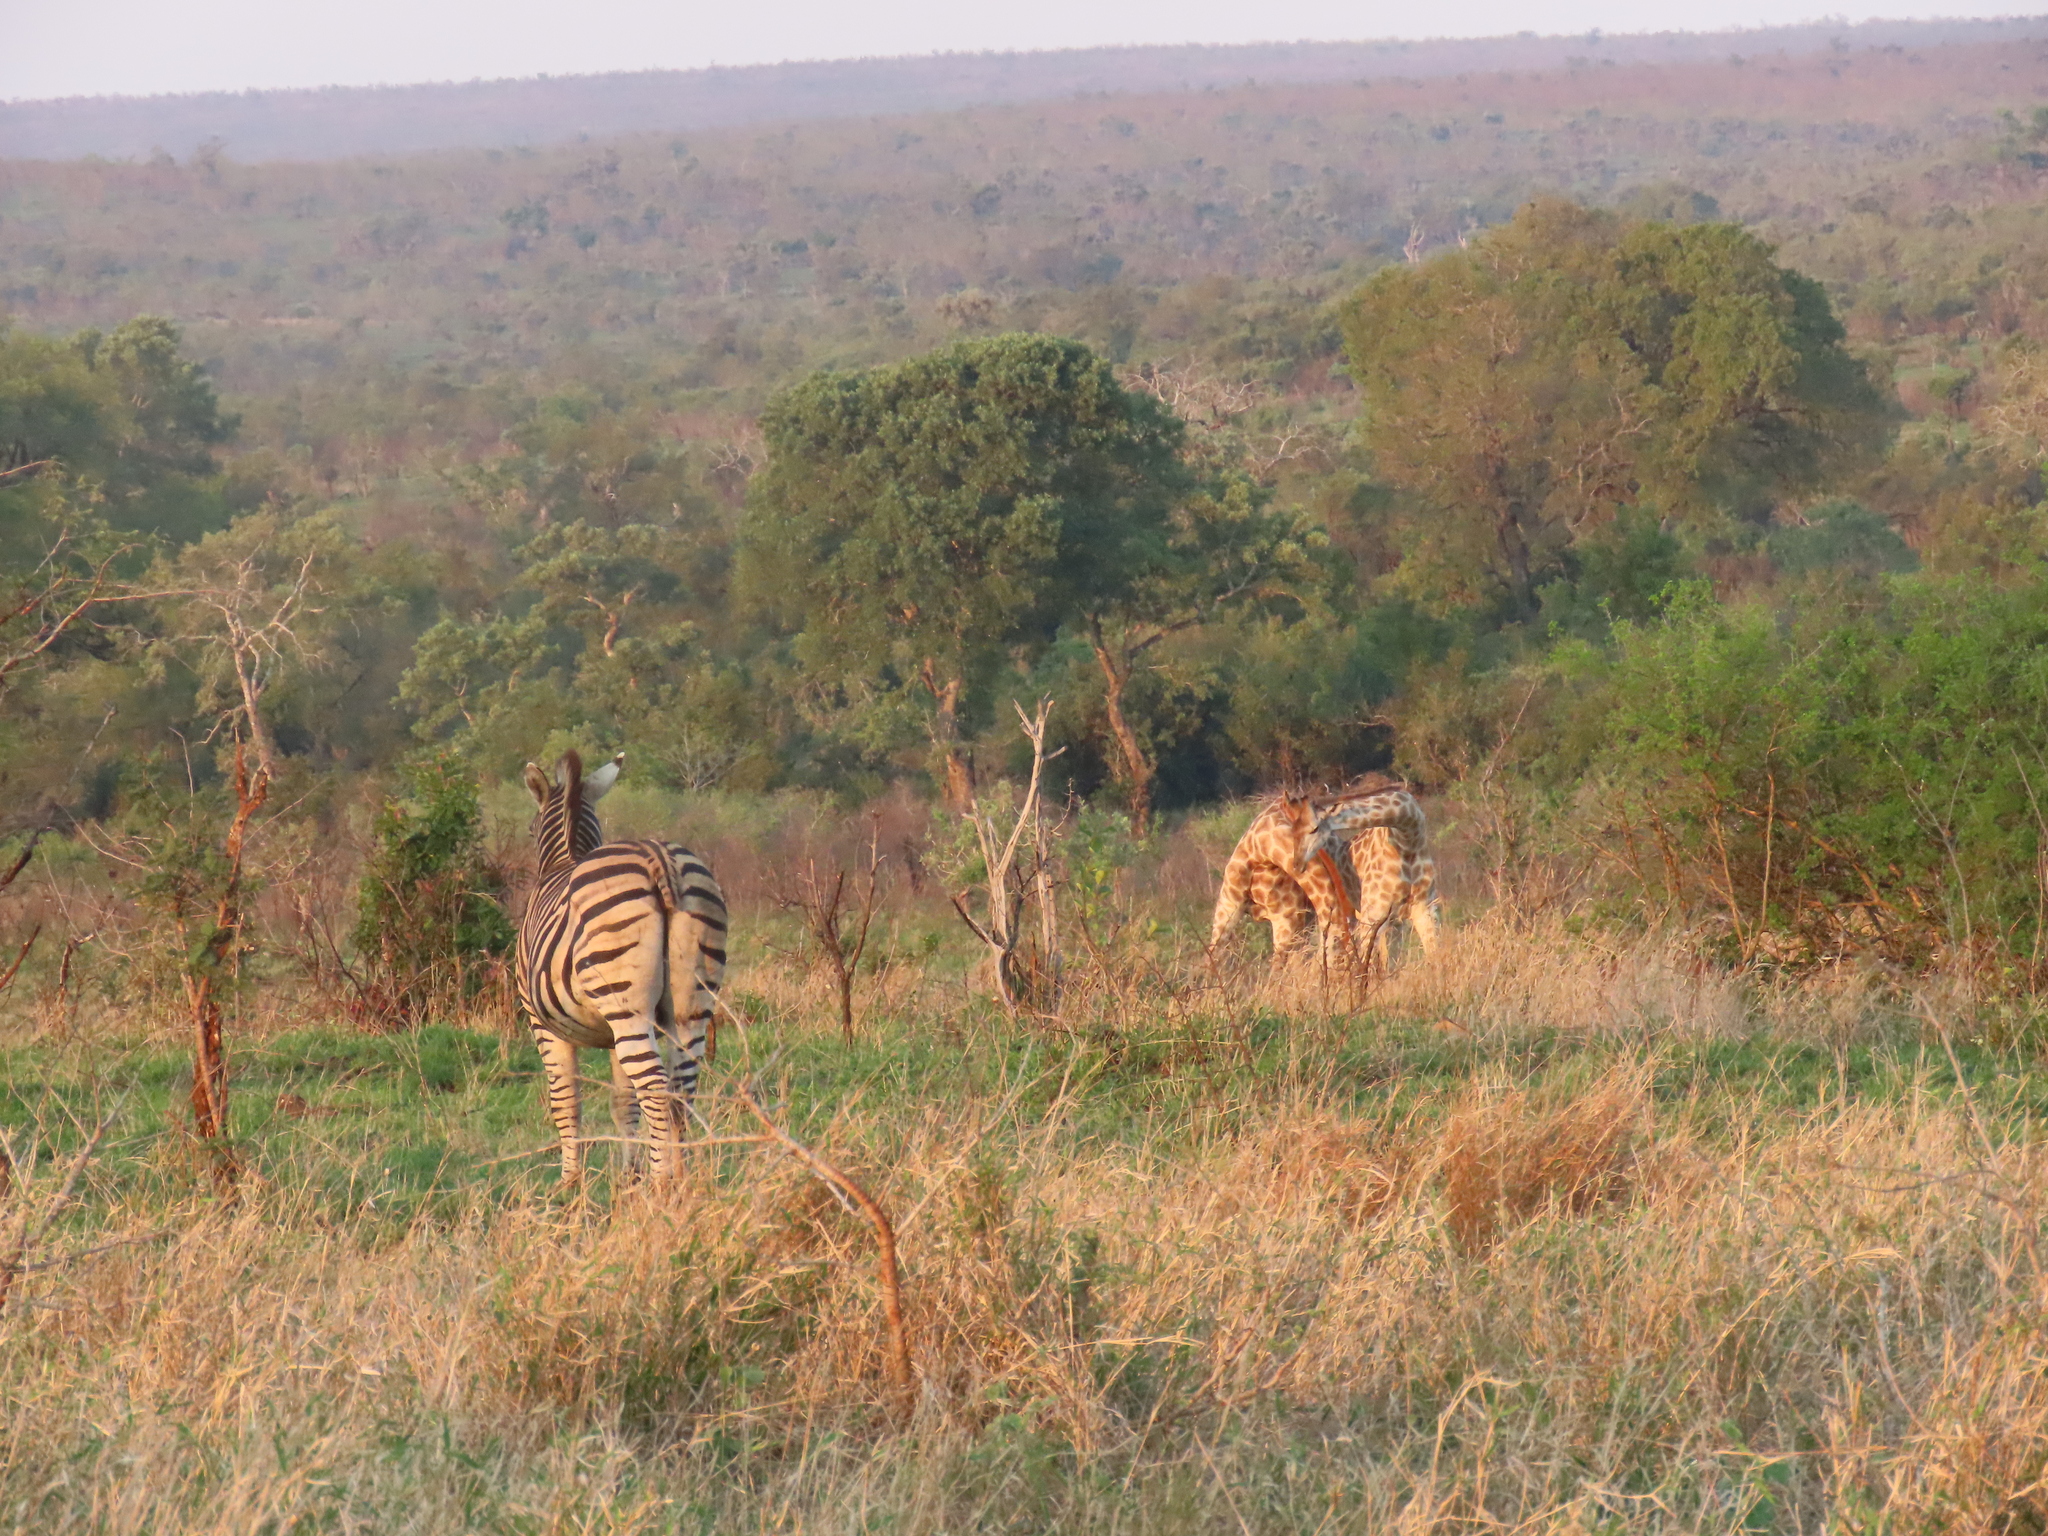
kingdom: Animalia
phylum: Chordata
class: Mammalia
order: Perissodactyla
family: Equidae
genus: Equus
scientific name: Equus quagga
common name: Plains zebra
